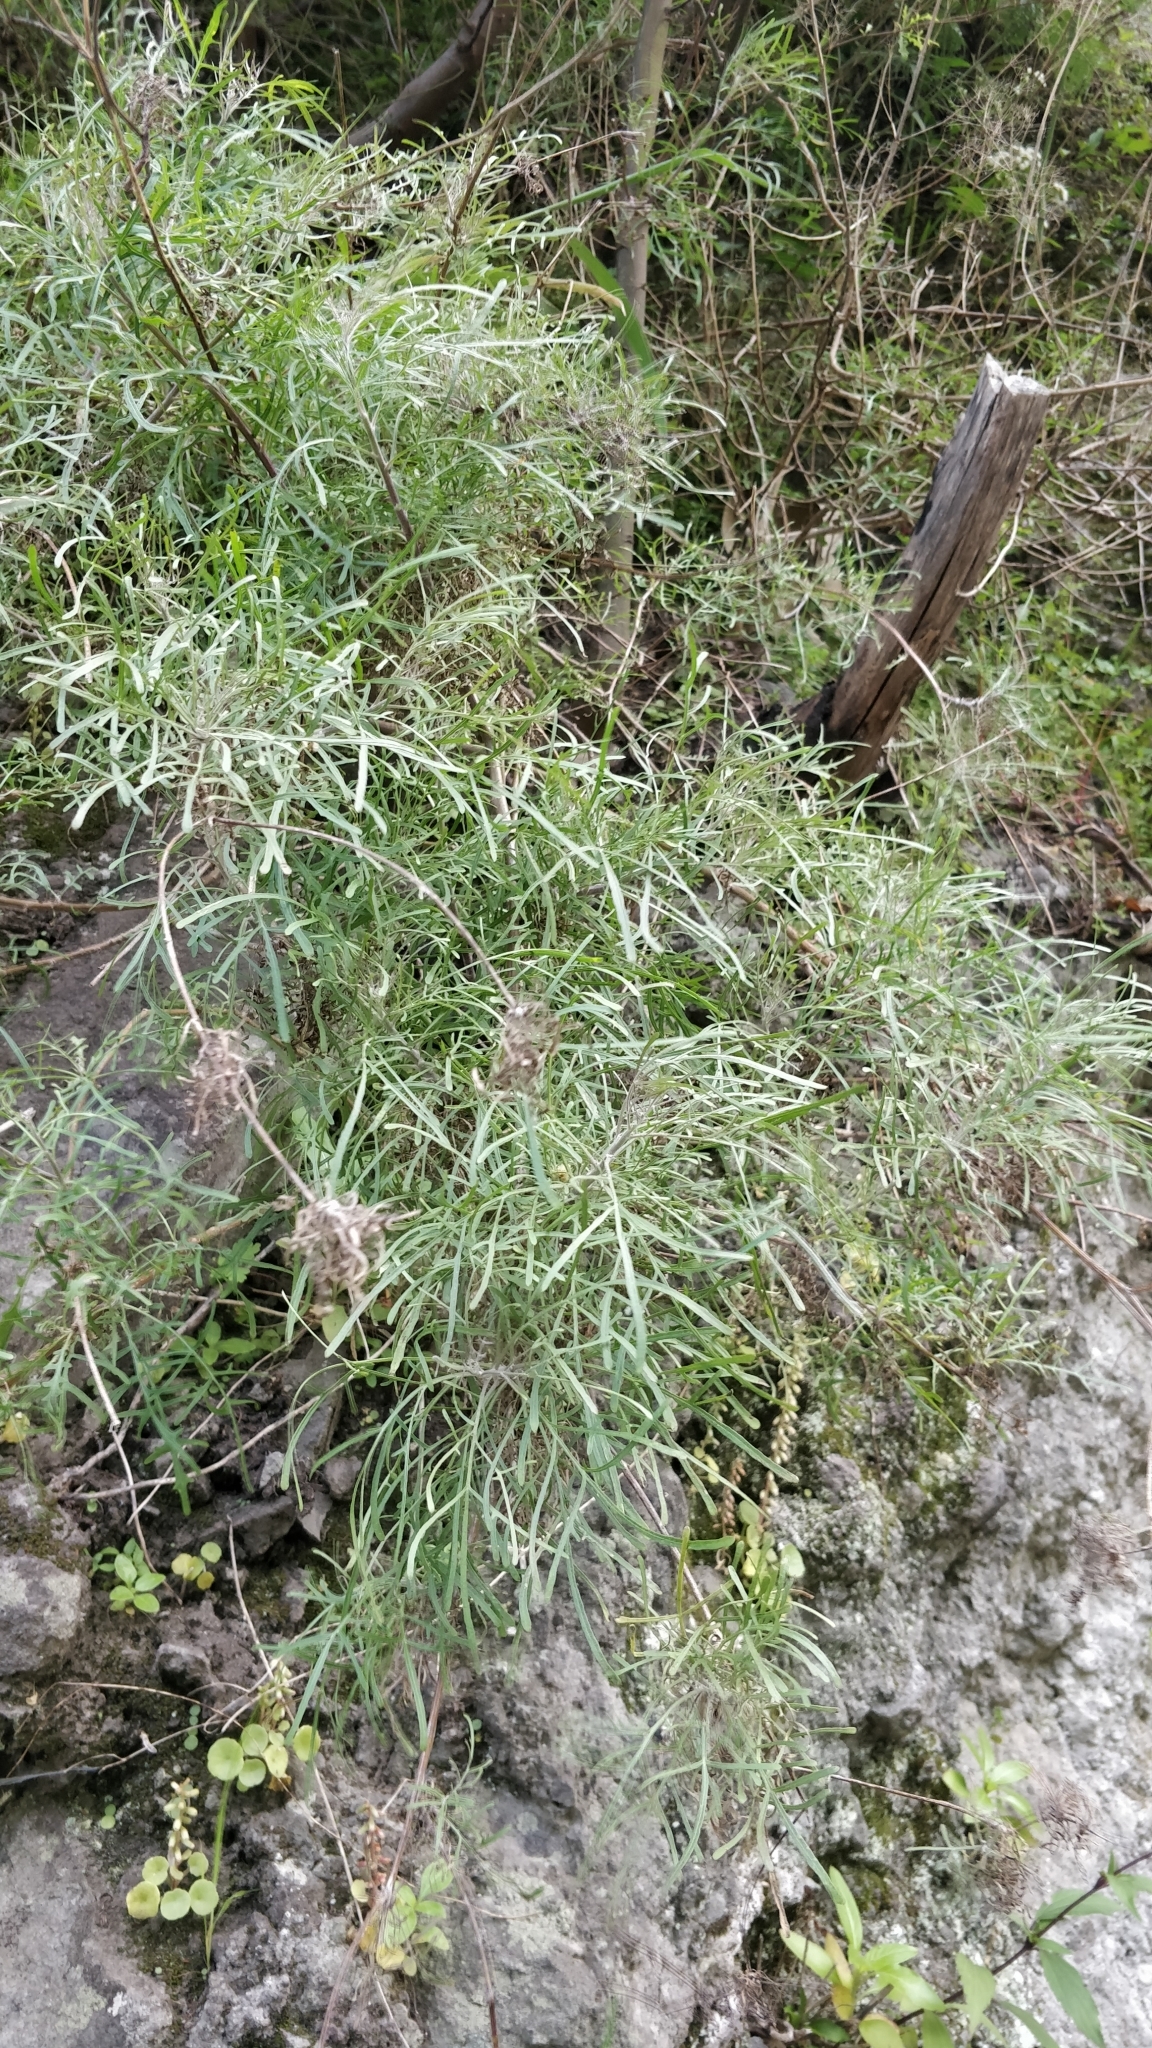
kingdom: Plantae
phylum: Tracheophyta
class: Magnoliopsida
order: Asterales
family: Asteraceae
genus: Tolpis
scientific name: Tolpis succulenta
